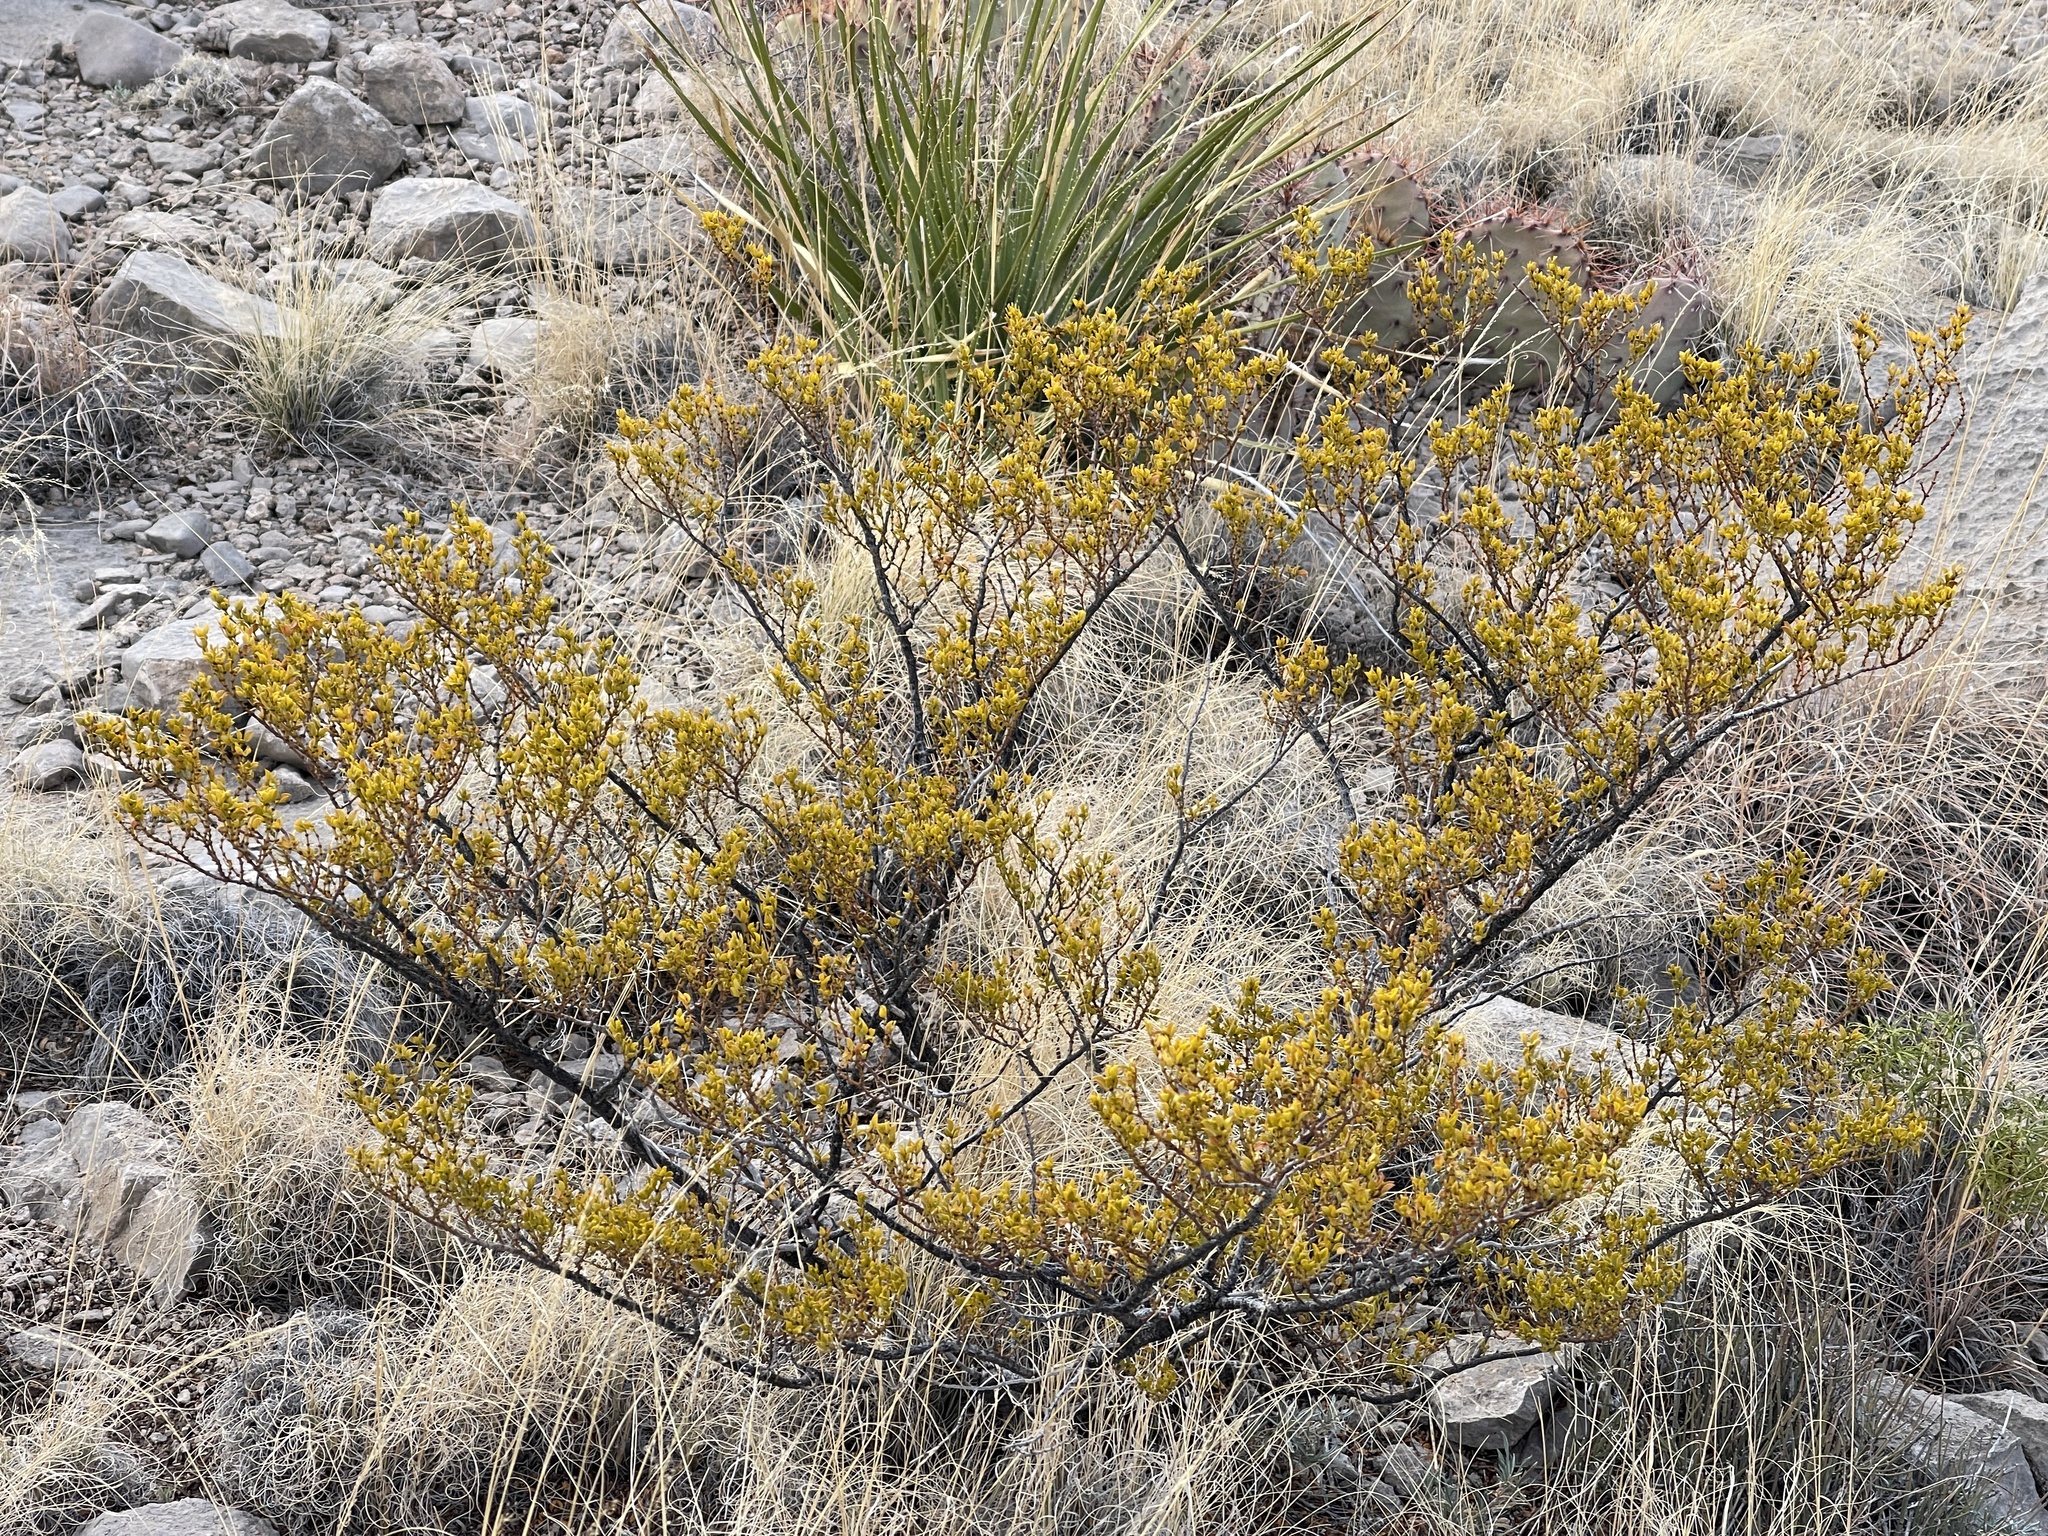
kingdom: Plantae
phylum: Tracheophyta
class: Magnoliopsida
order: Zygophyllales
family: Zygophyllaceae
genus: Larrea
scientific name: Larrea tridentata
